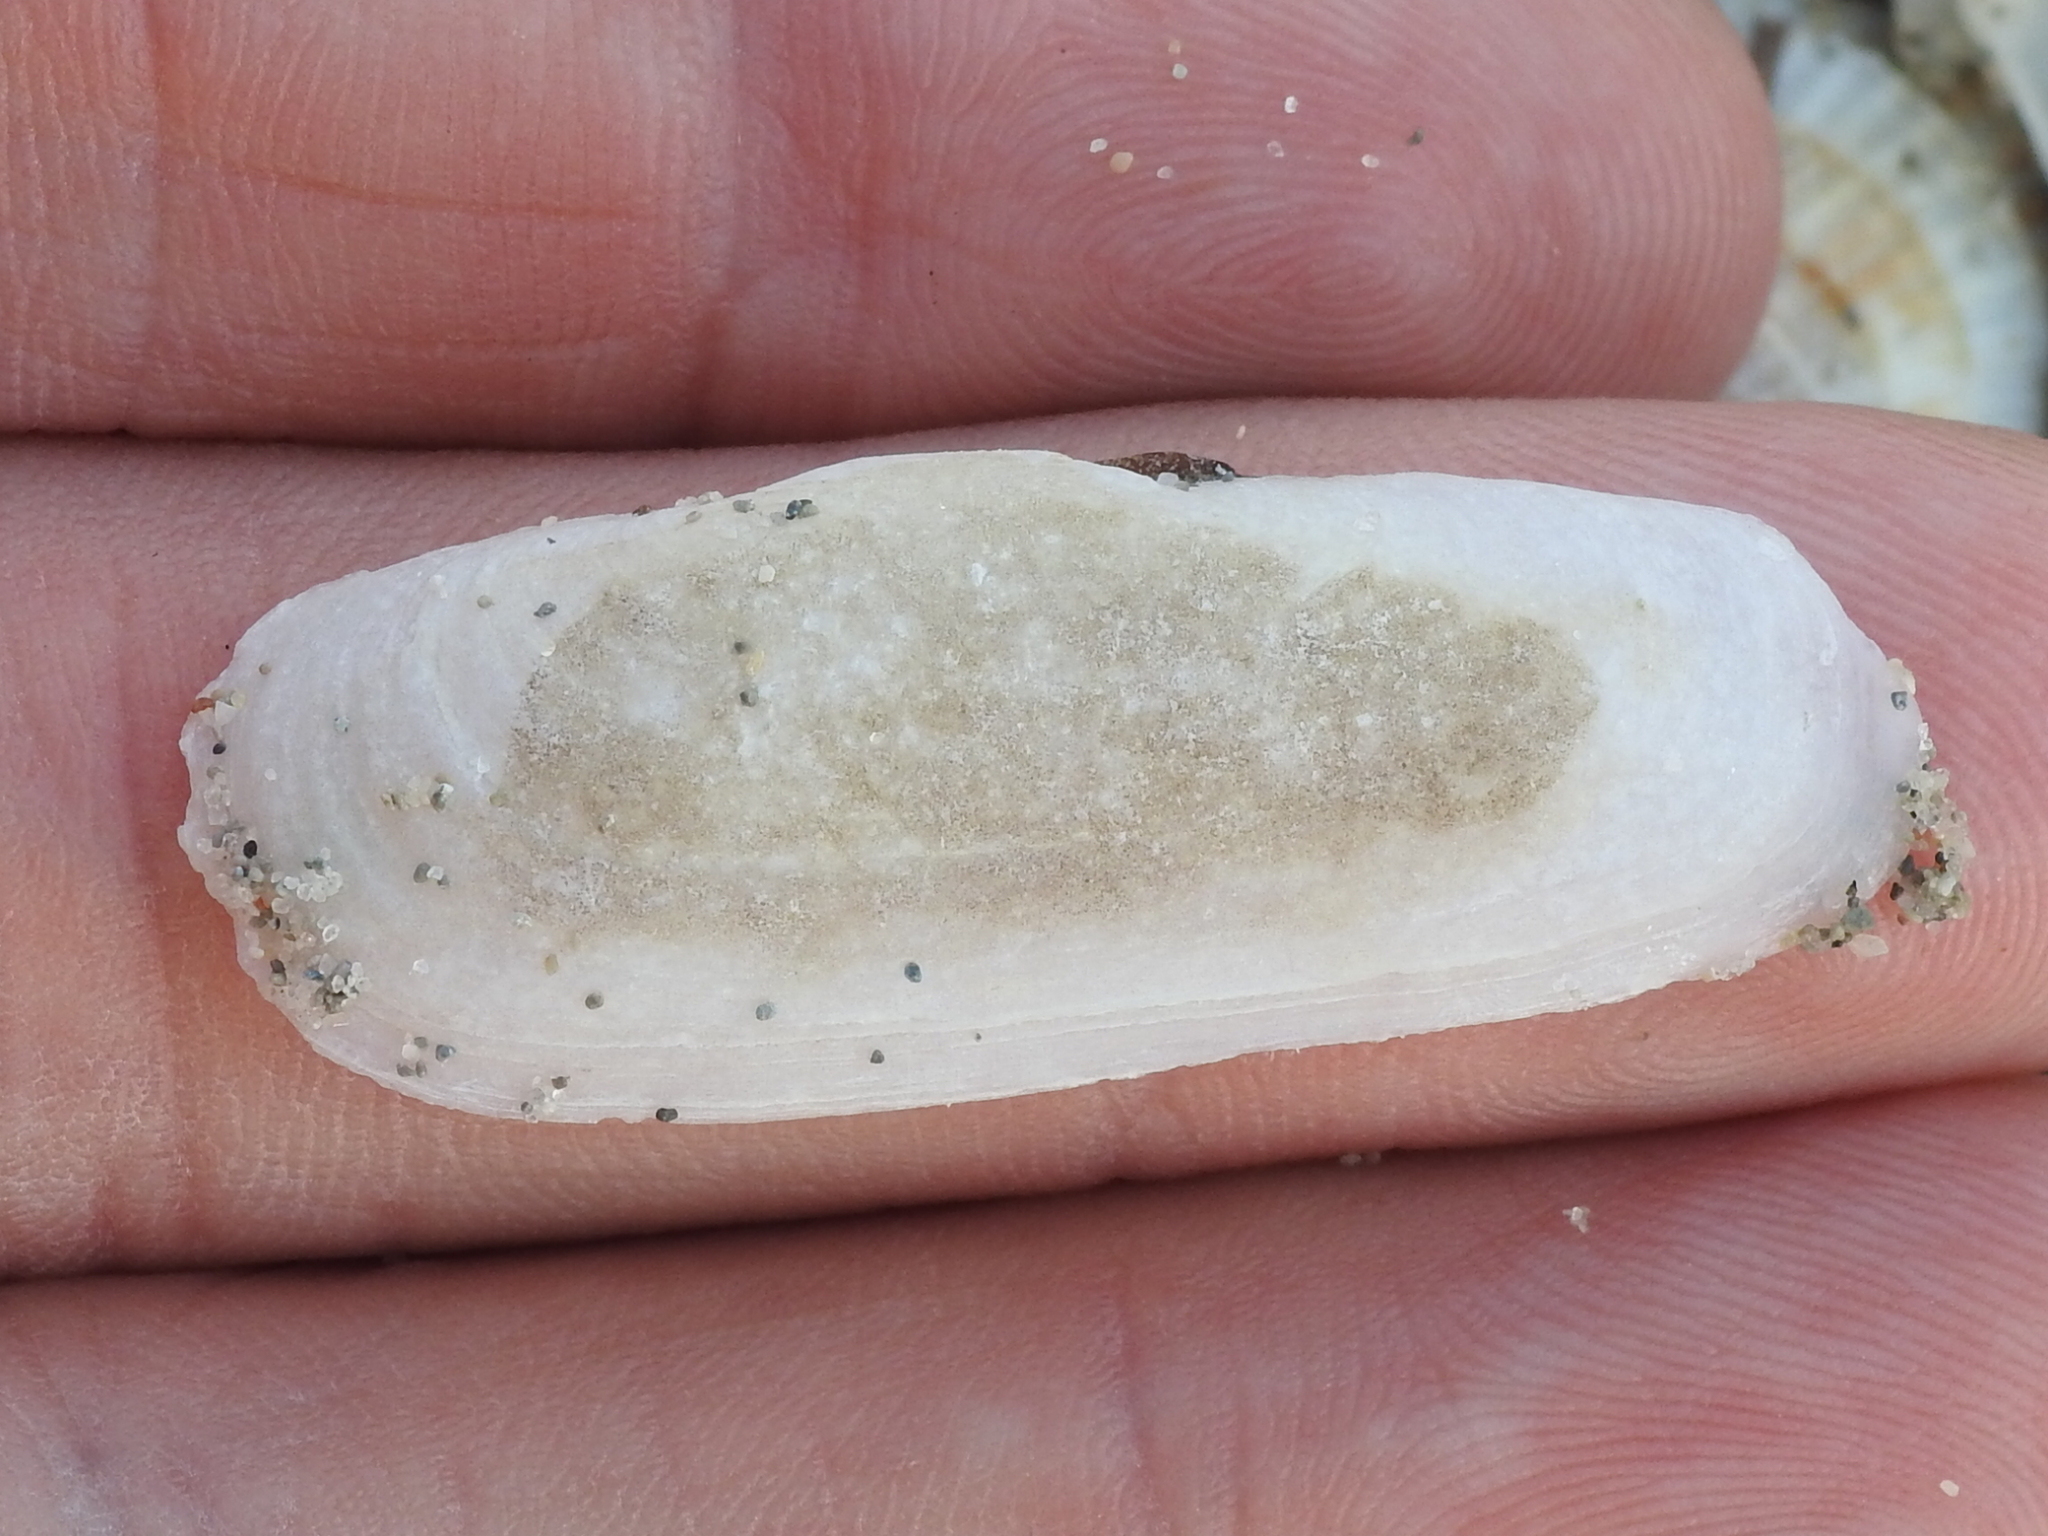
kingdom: Animalia
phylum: Mollusca
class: Bivalvia
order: Cardiida
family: Solecurtidae
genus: Tagelus
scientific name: Tagelus plebeius
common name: Stout tagelus
